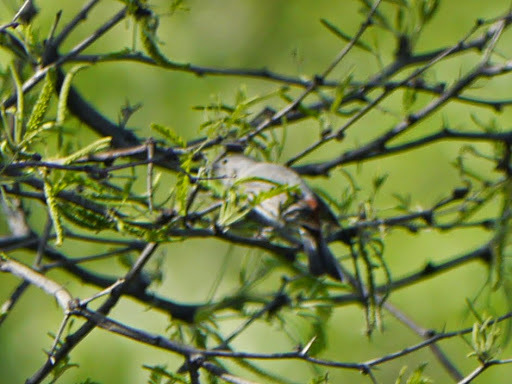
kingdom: Animalia
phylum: Chordata
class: Aves
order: Passeriformes
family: Parulidae
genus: Leiothlypis
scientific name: Leiothlypis luciae
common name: Lucy's warbler
